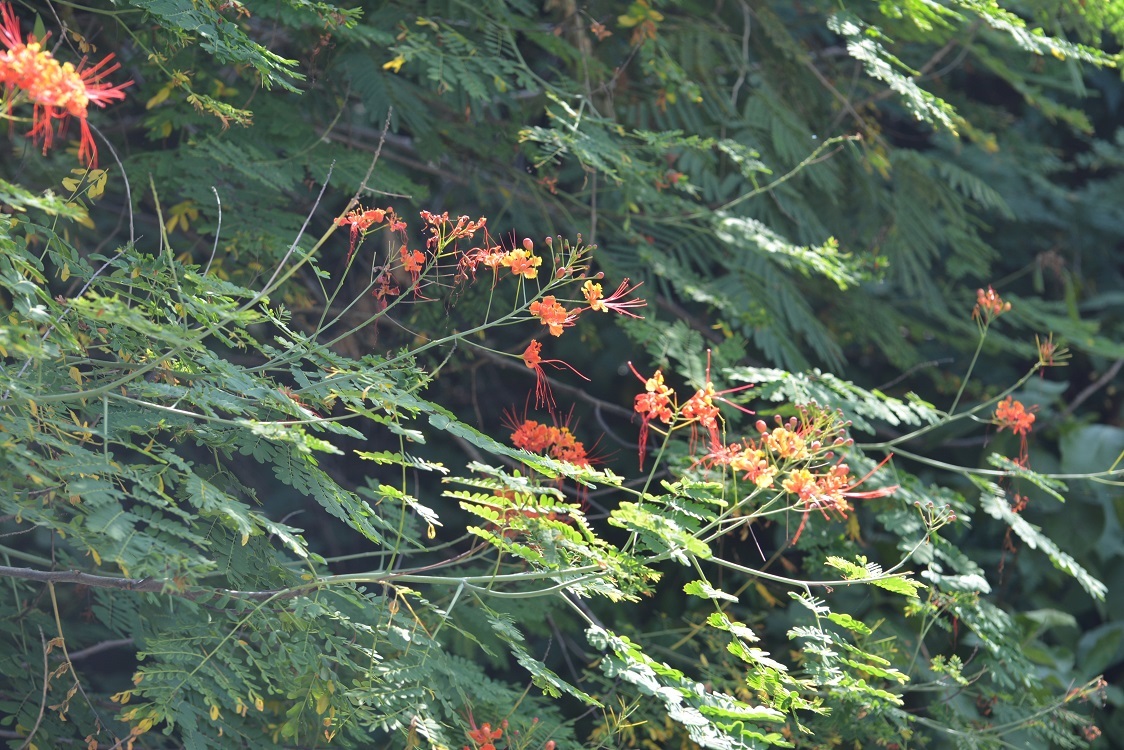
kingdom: Plantae
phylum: Tracheophyta
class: Magnoliopsida
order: Fabales
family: Fabaceae
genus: Caesalpinia
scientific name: Caesalpinia pulcherrima
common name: Pride-of-barbados
